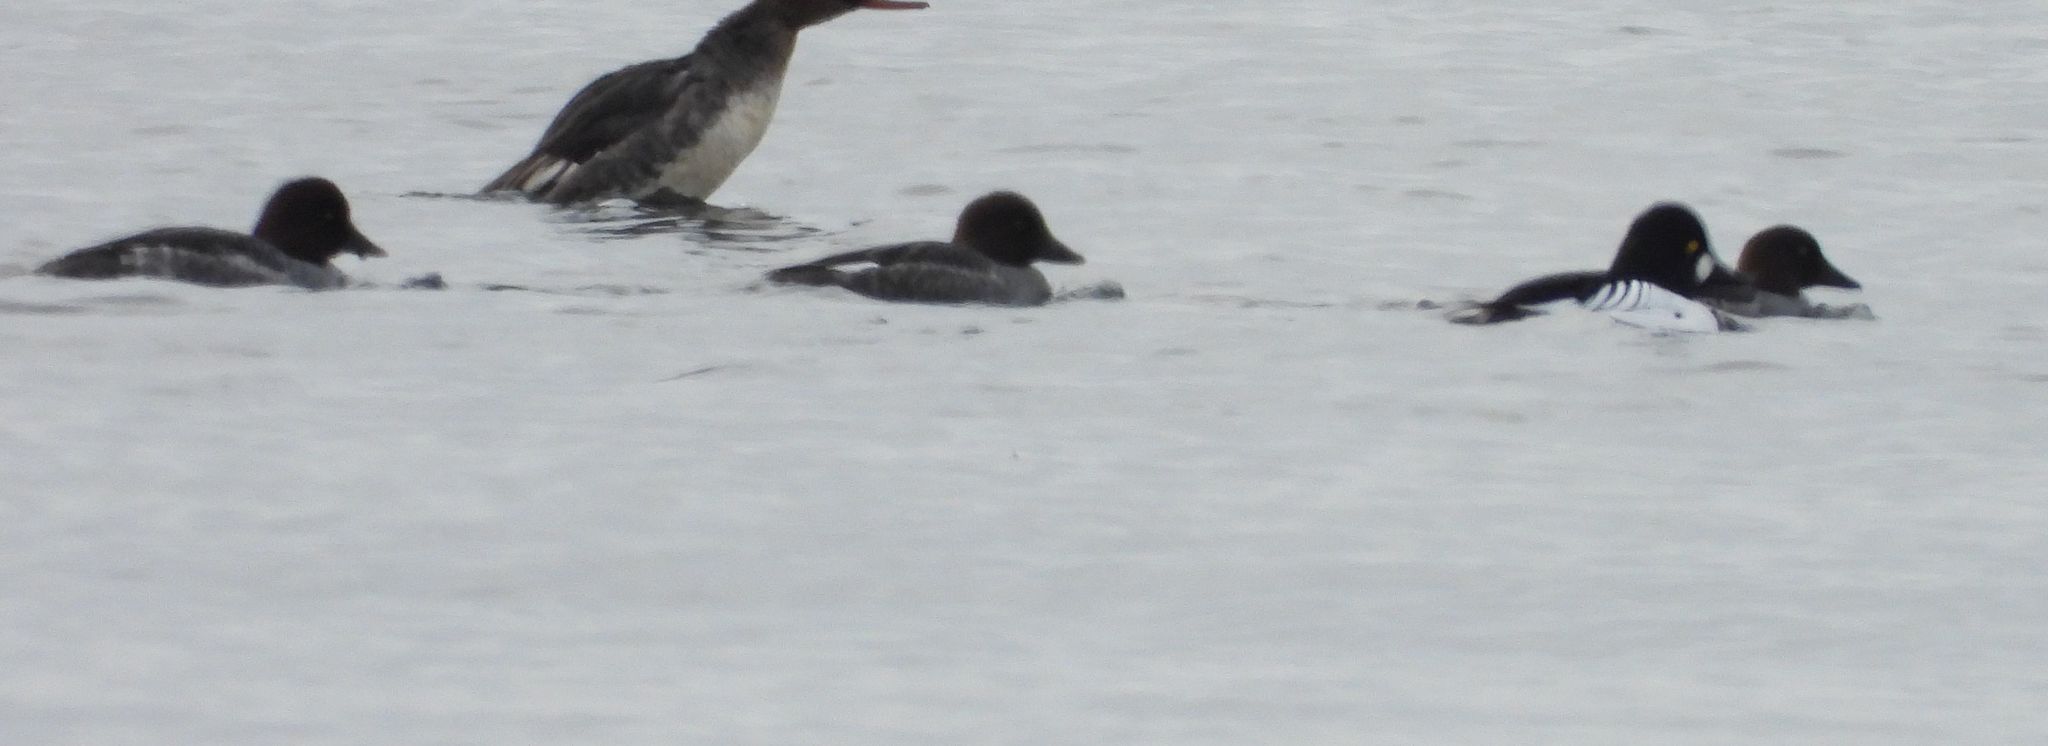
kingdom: Animalia
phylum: Chordata
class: Aves
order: Anseriformes
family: Anatidae
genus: Bucephala
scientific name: Bucephala clangula
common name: Common goldeneye
